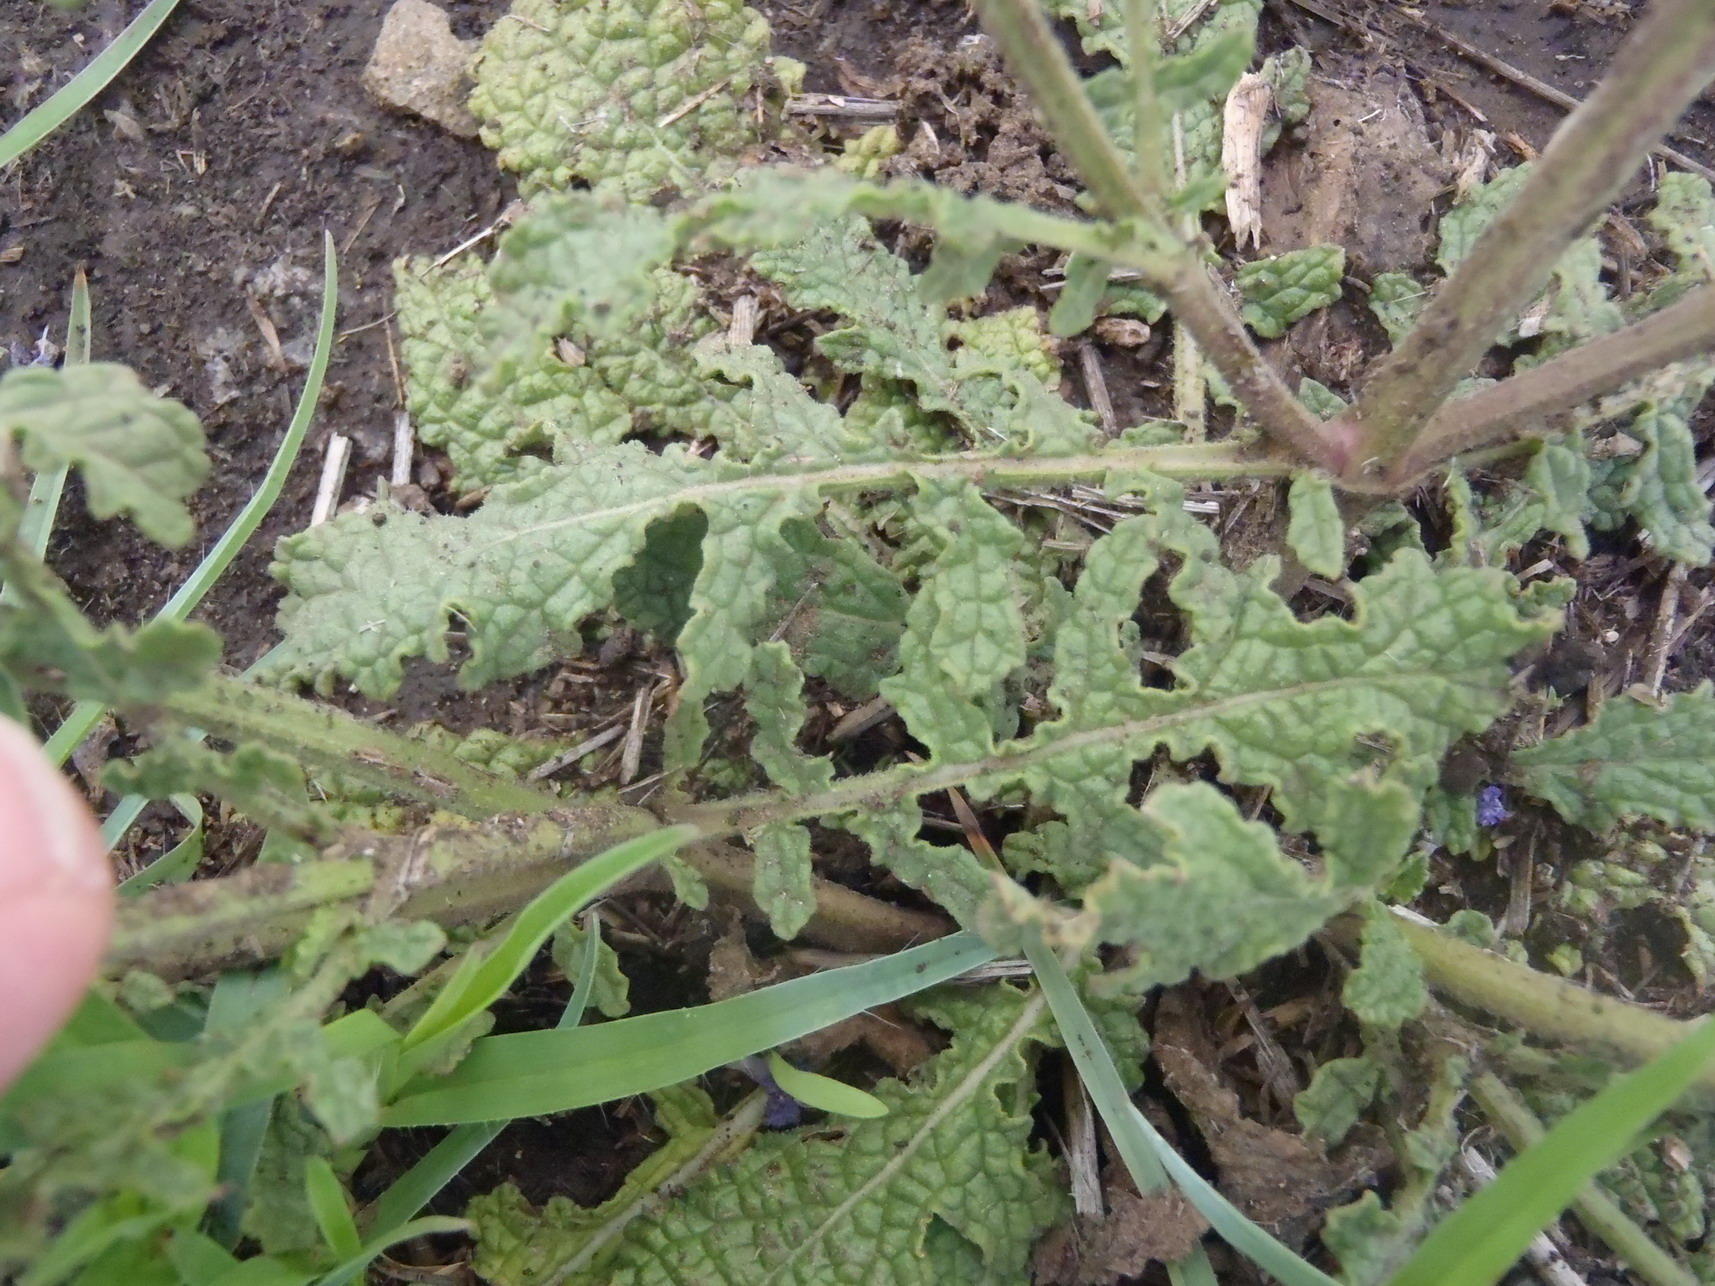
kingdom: Plantae
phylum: Tracheophyta
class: Magnoliopsida
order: Lamiales
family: Lamiaceae
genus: Salvia
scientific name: Salvia runcinata
